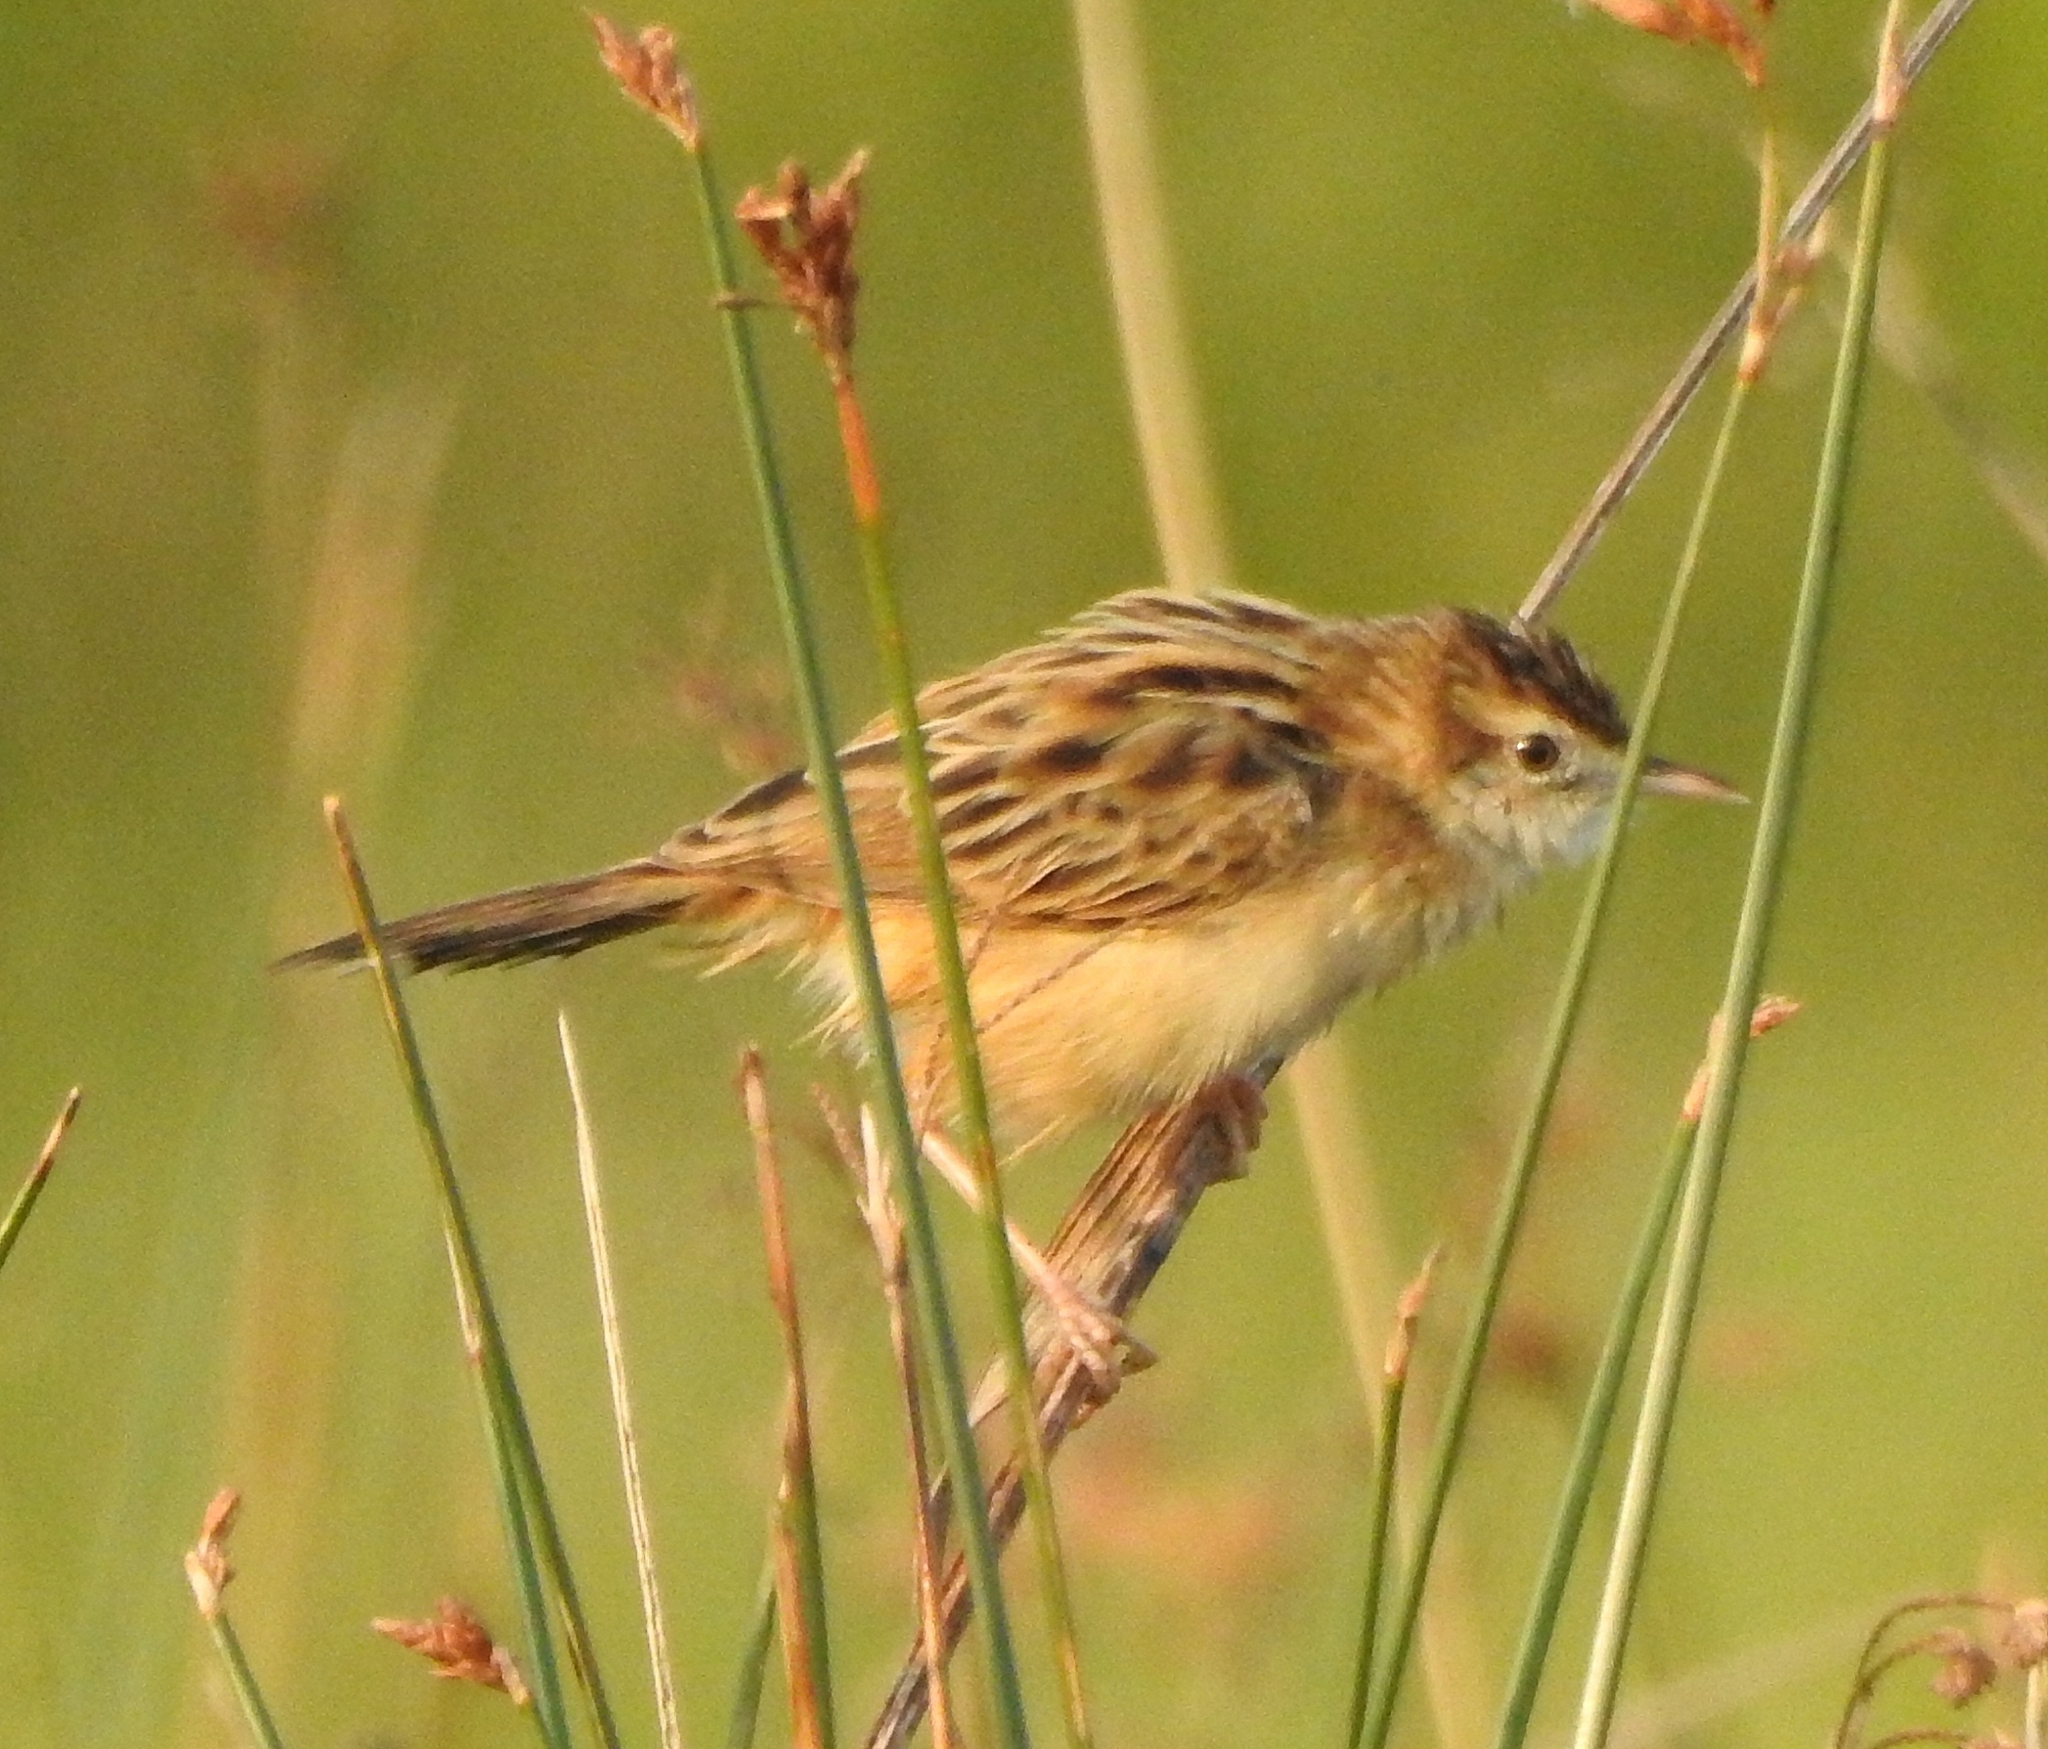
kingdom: Animalia
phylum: Chordata
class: Aves
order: Passeriformes
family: Cisticolidae
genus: Cisticola
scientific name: Cisticola juncidis
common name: Zitting cisticola
